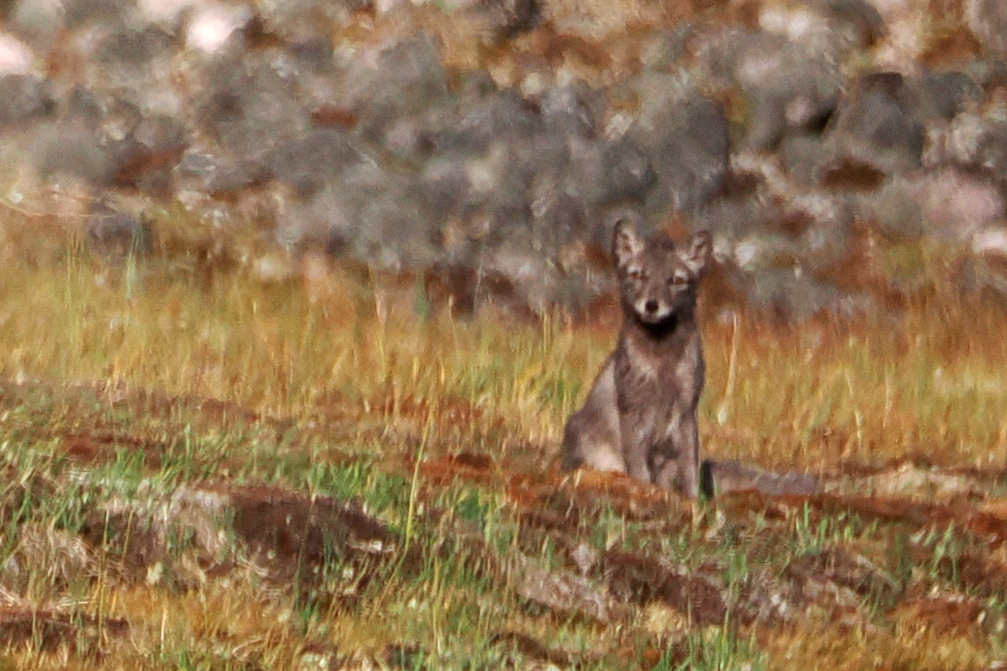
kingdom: Animalia
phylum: Chordata
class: Mammalia
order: Carnivora
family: Canidae
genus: Vulpes
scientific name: Vulpes lagopus
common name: Arctic fox
